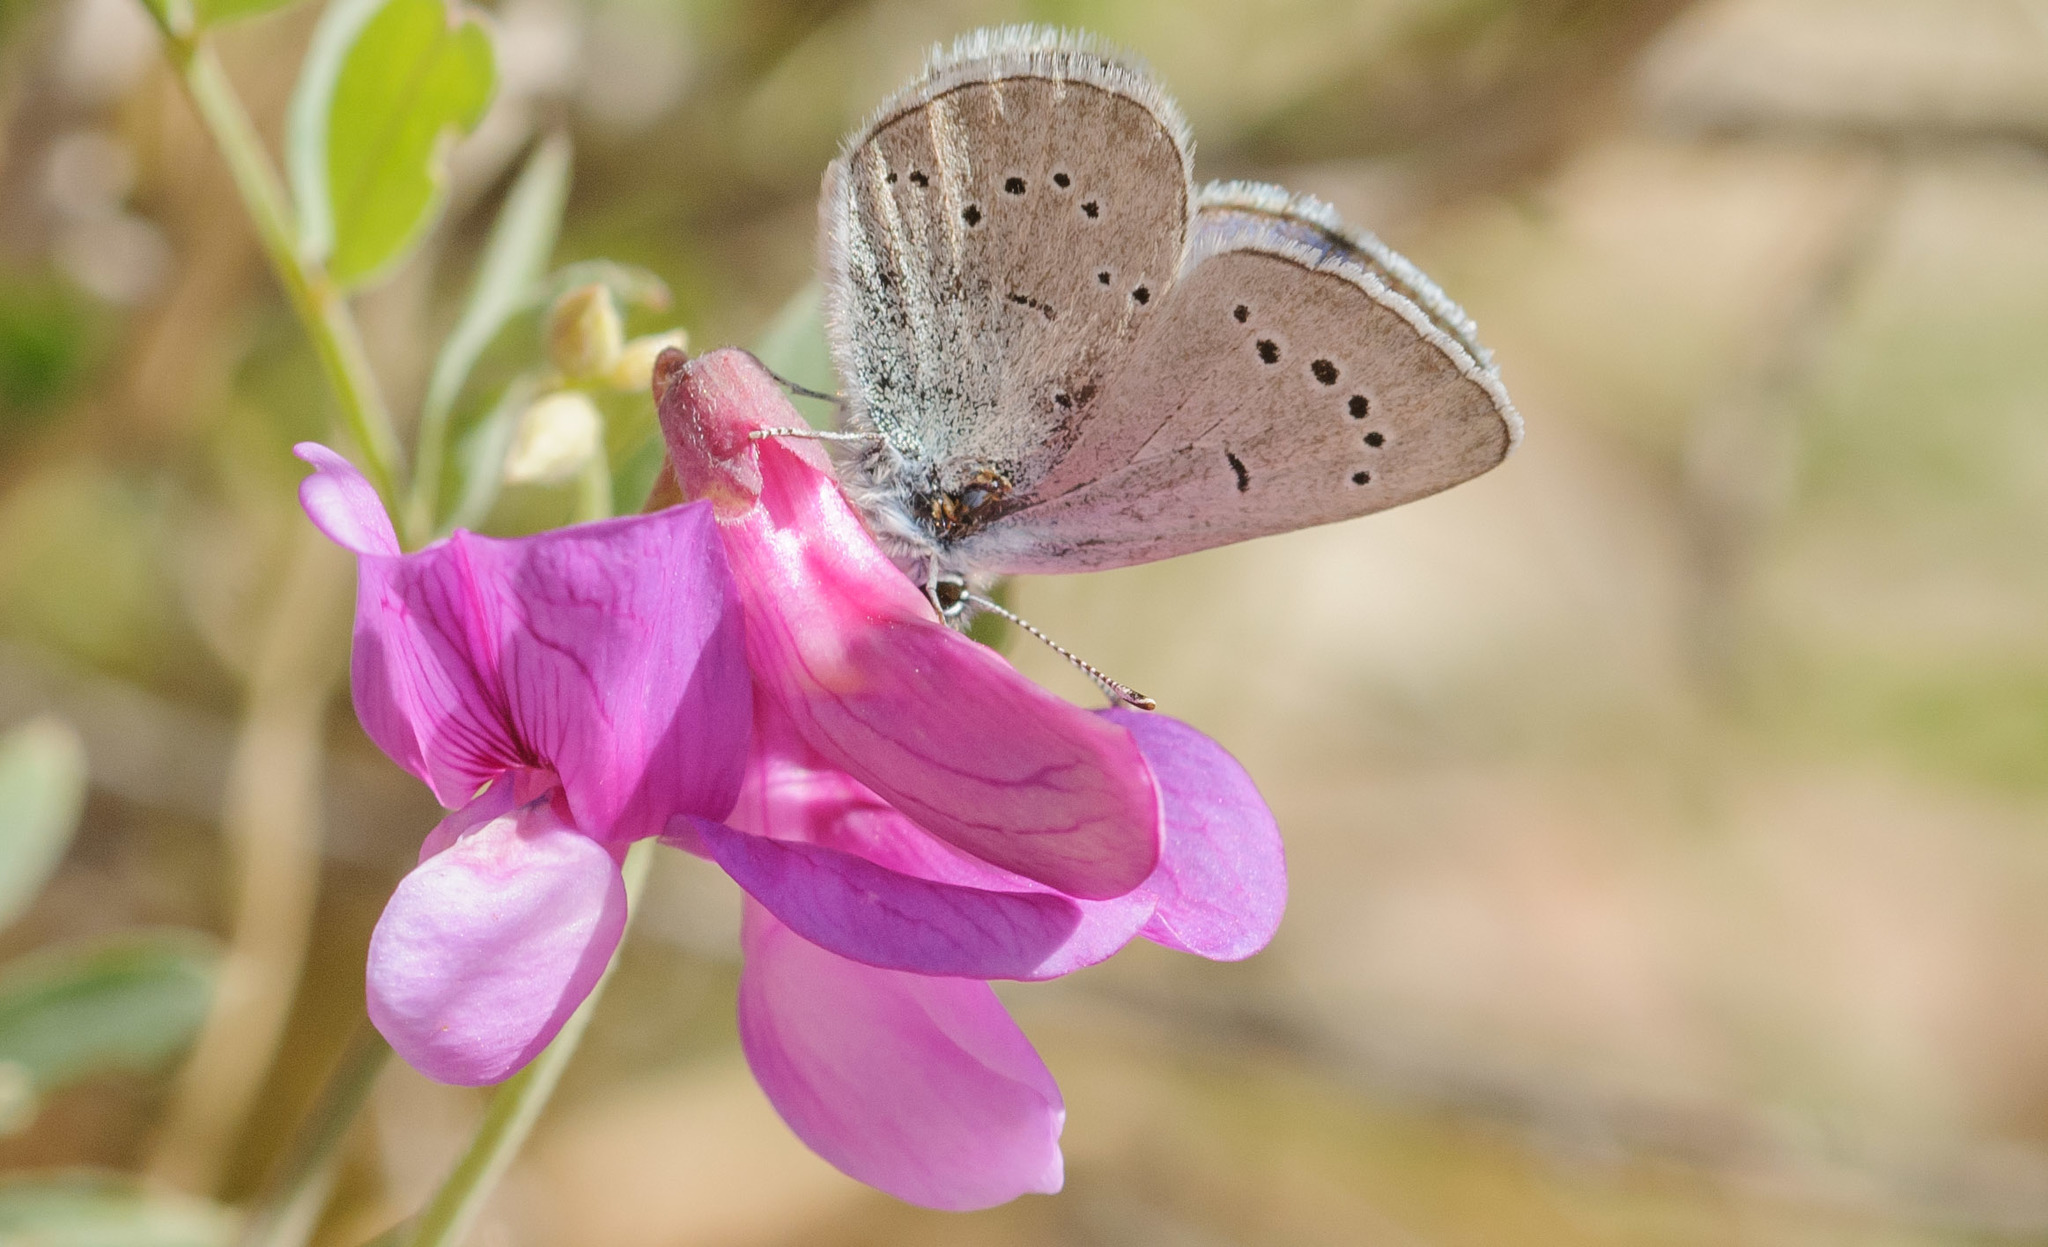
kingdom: Animalia
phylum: Arthropoda
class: Insecta
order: Lepidoptera
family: Lycaenidae
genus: Glaucopsyche
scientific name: Glaucopsyche lygdamus
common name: Silvery blue
